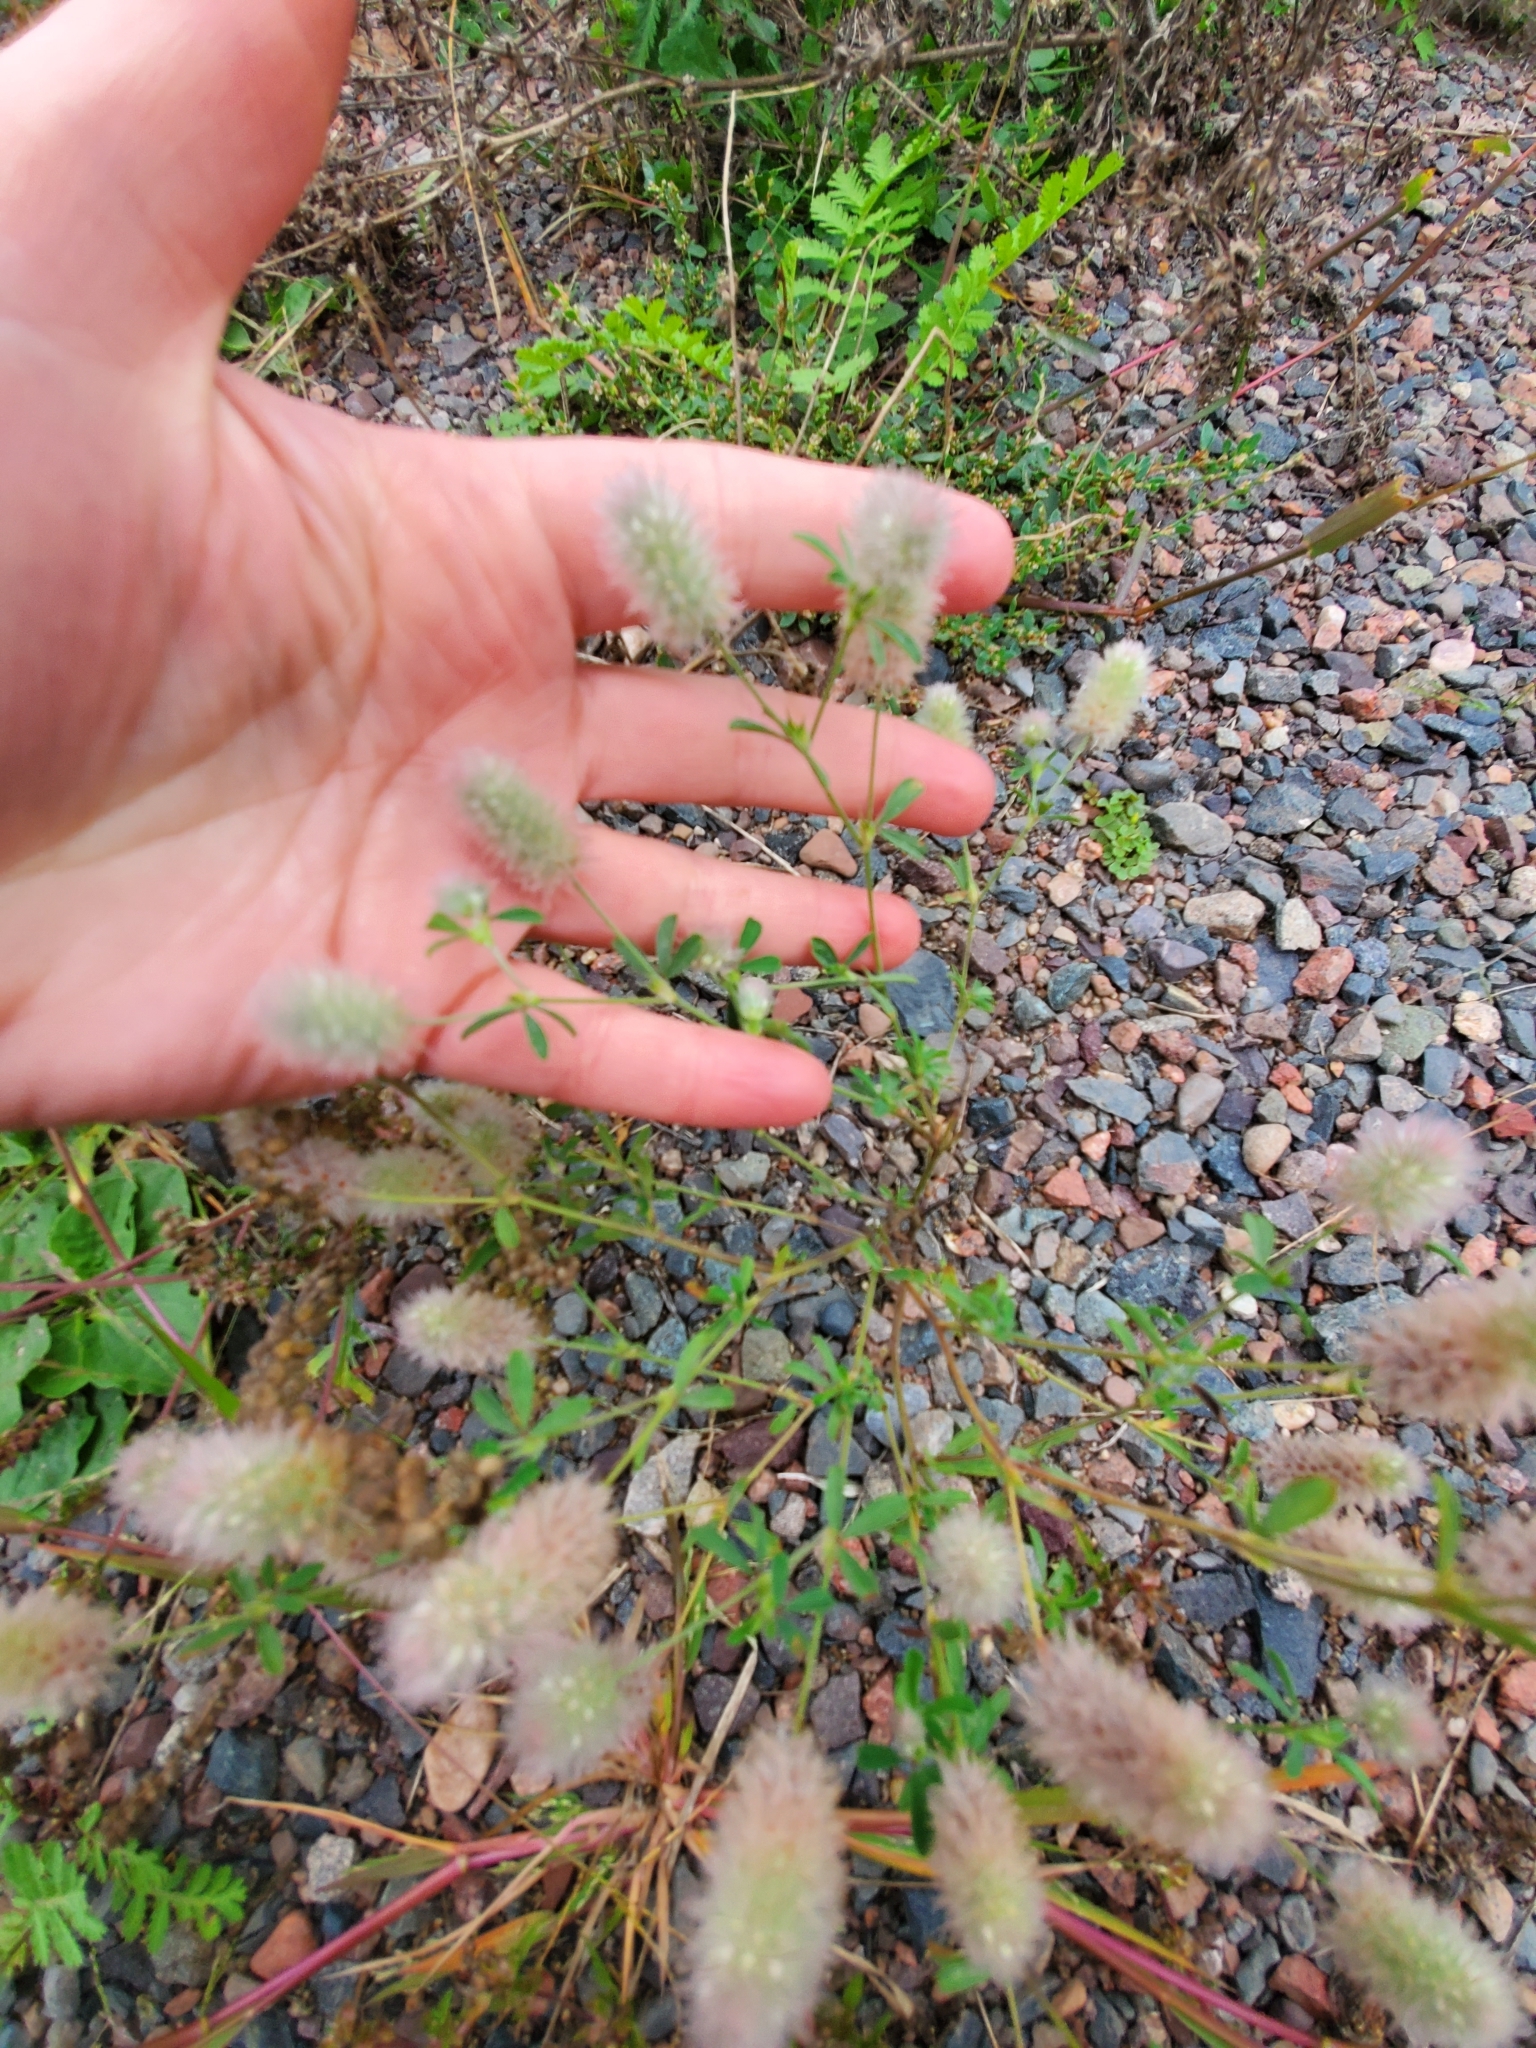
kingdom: Plantae
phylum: Tracheophyta
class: Magnoliopsida
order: Fabales
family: Fabaceae
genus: Trifolium
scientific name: Trifolium arvense
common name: Hare's-foot clover
